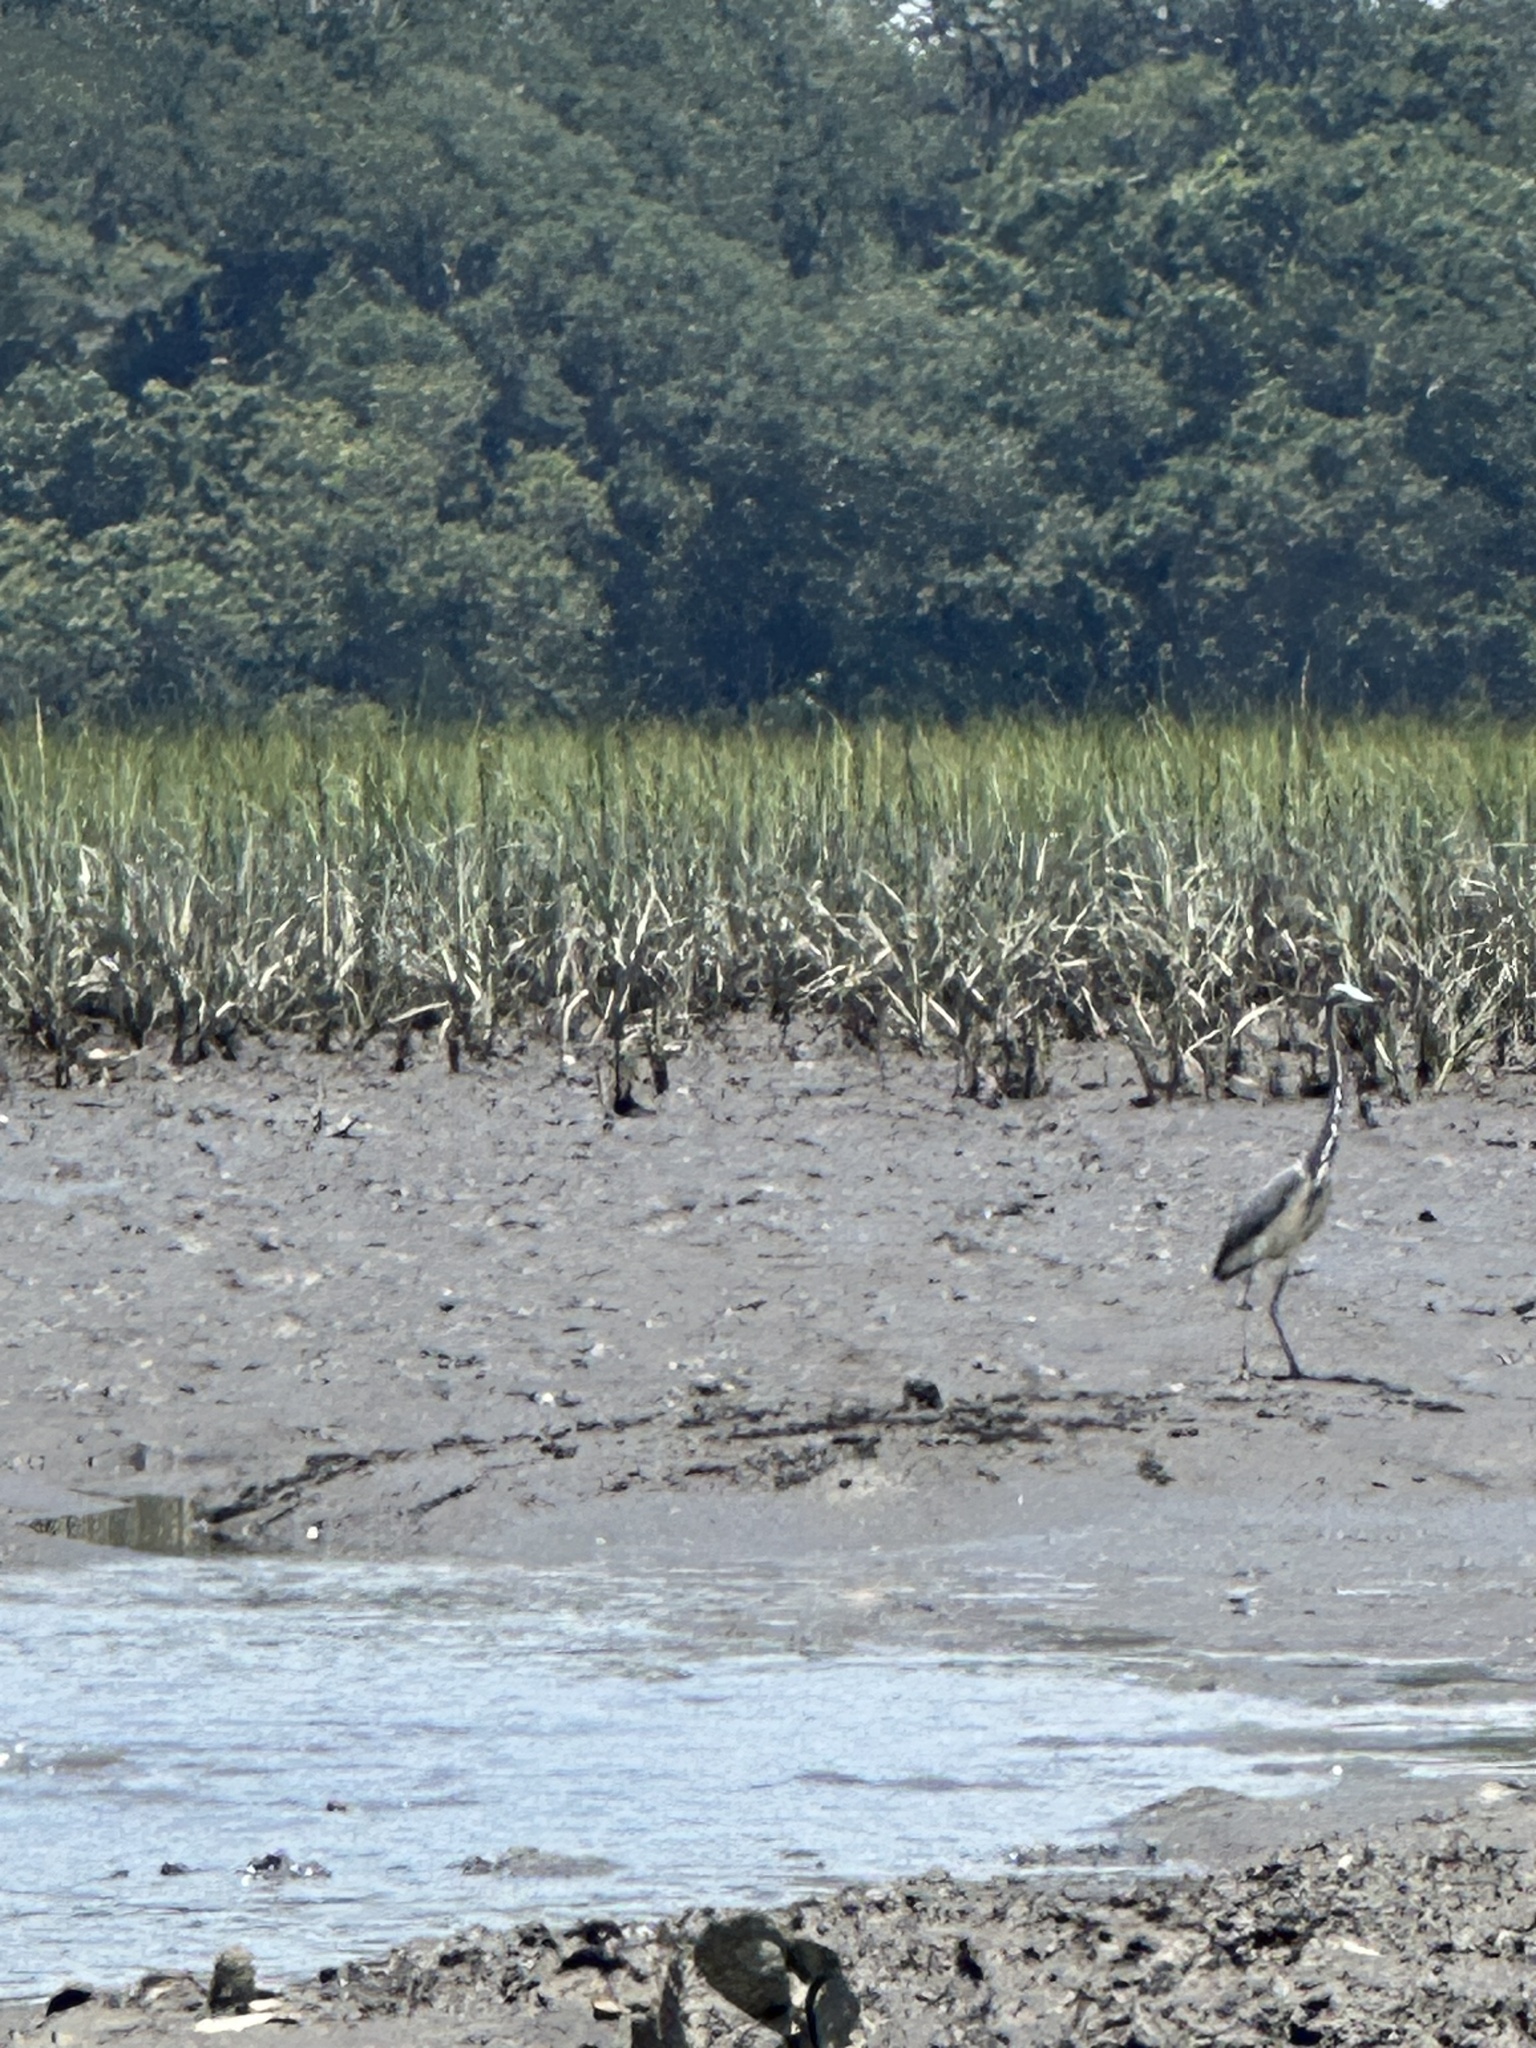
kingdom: Animalia
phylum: Chordata
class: Aves
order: Pelecaniformes
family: Ardeidae
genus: Egretta
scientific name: Egretta tricolor
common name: Tricolored heron
